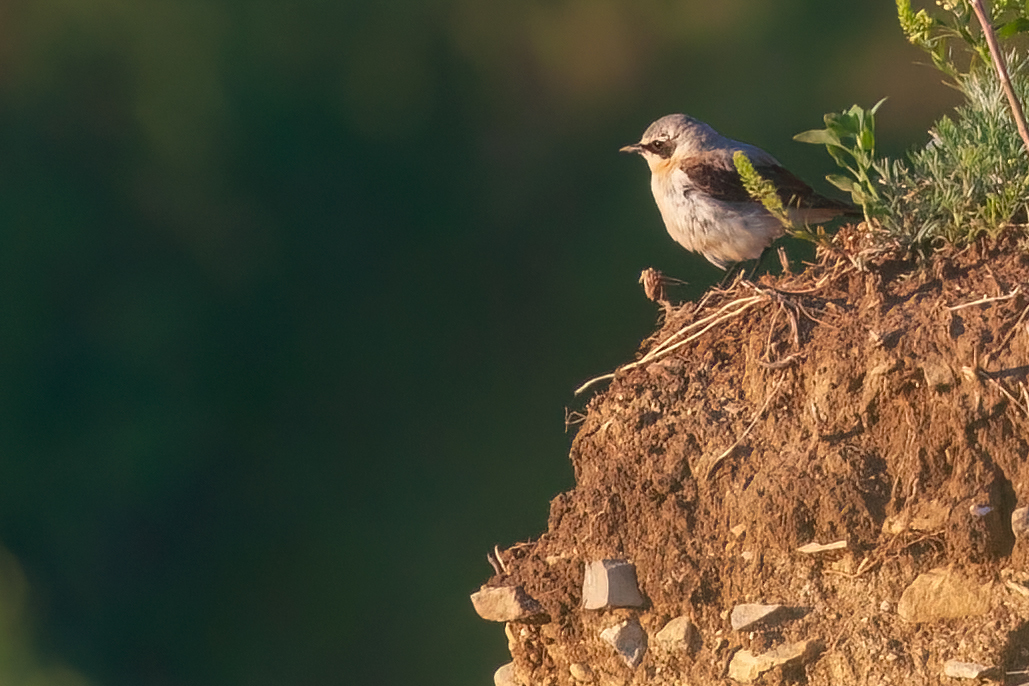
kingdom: Animalia
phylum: Chordata
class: Aves
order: Passeriformes
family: Muscicapidae
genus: Oenanthe
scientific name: Oenanthe oenanthe
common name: Northern wheatear
